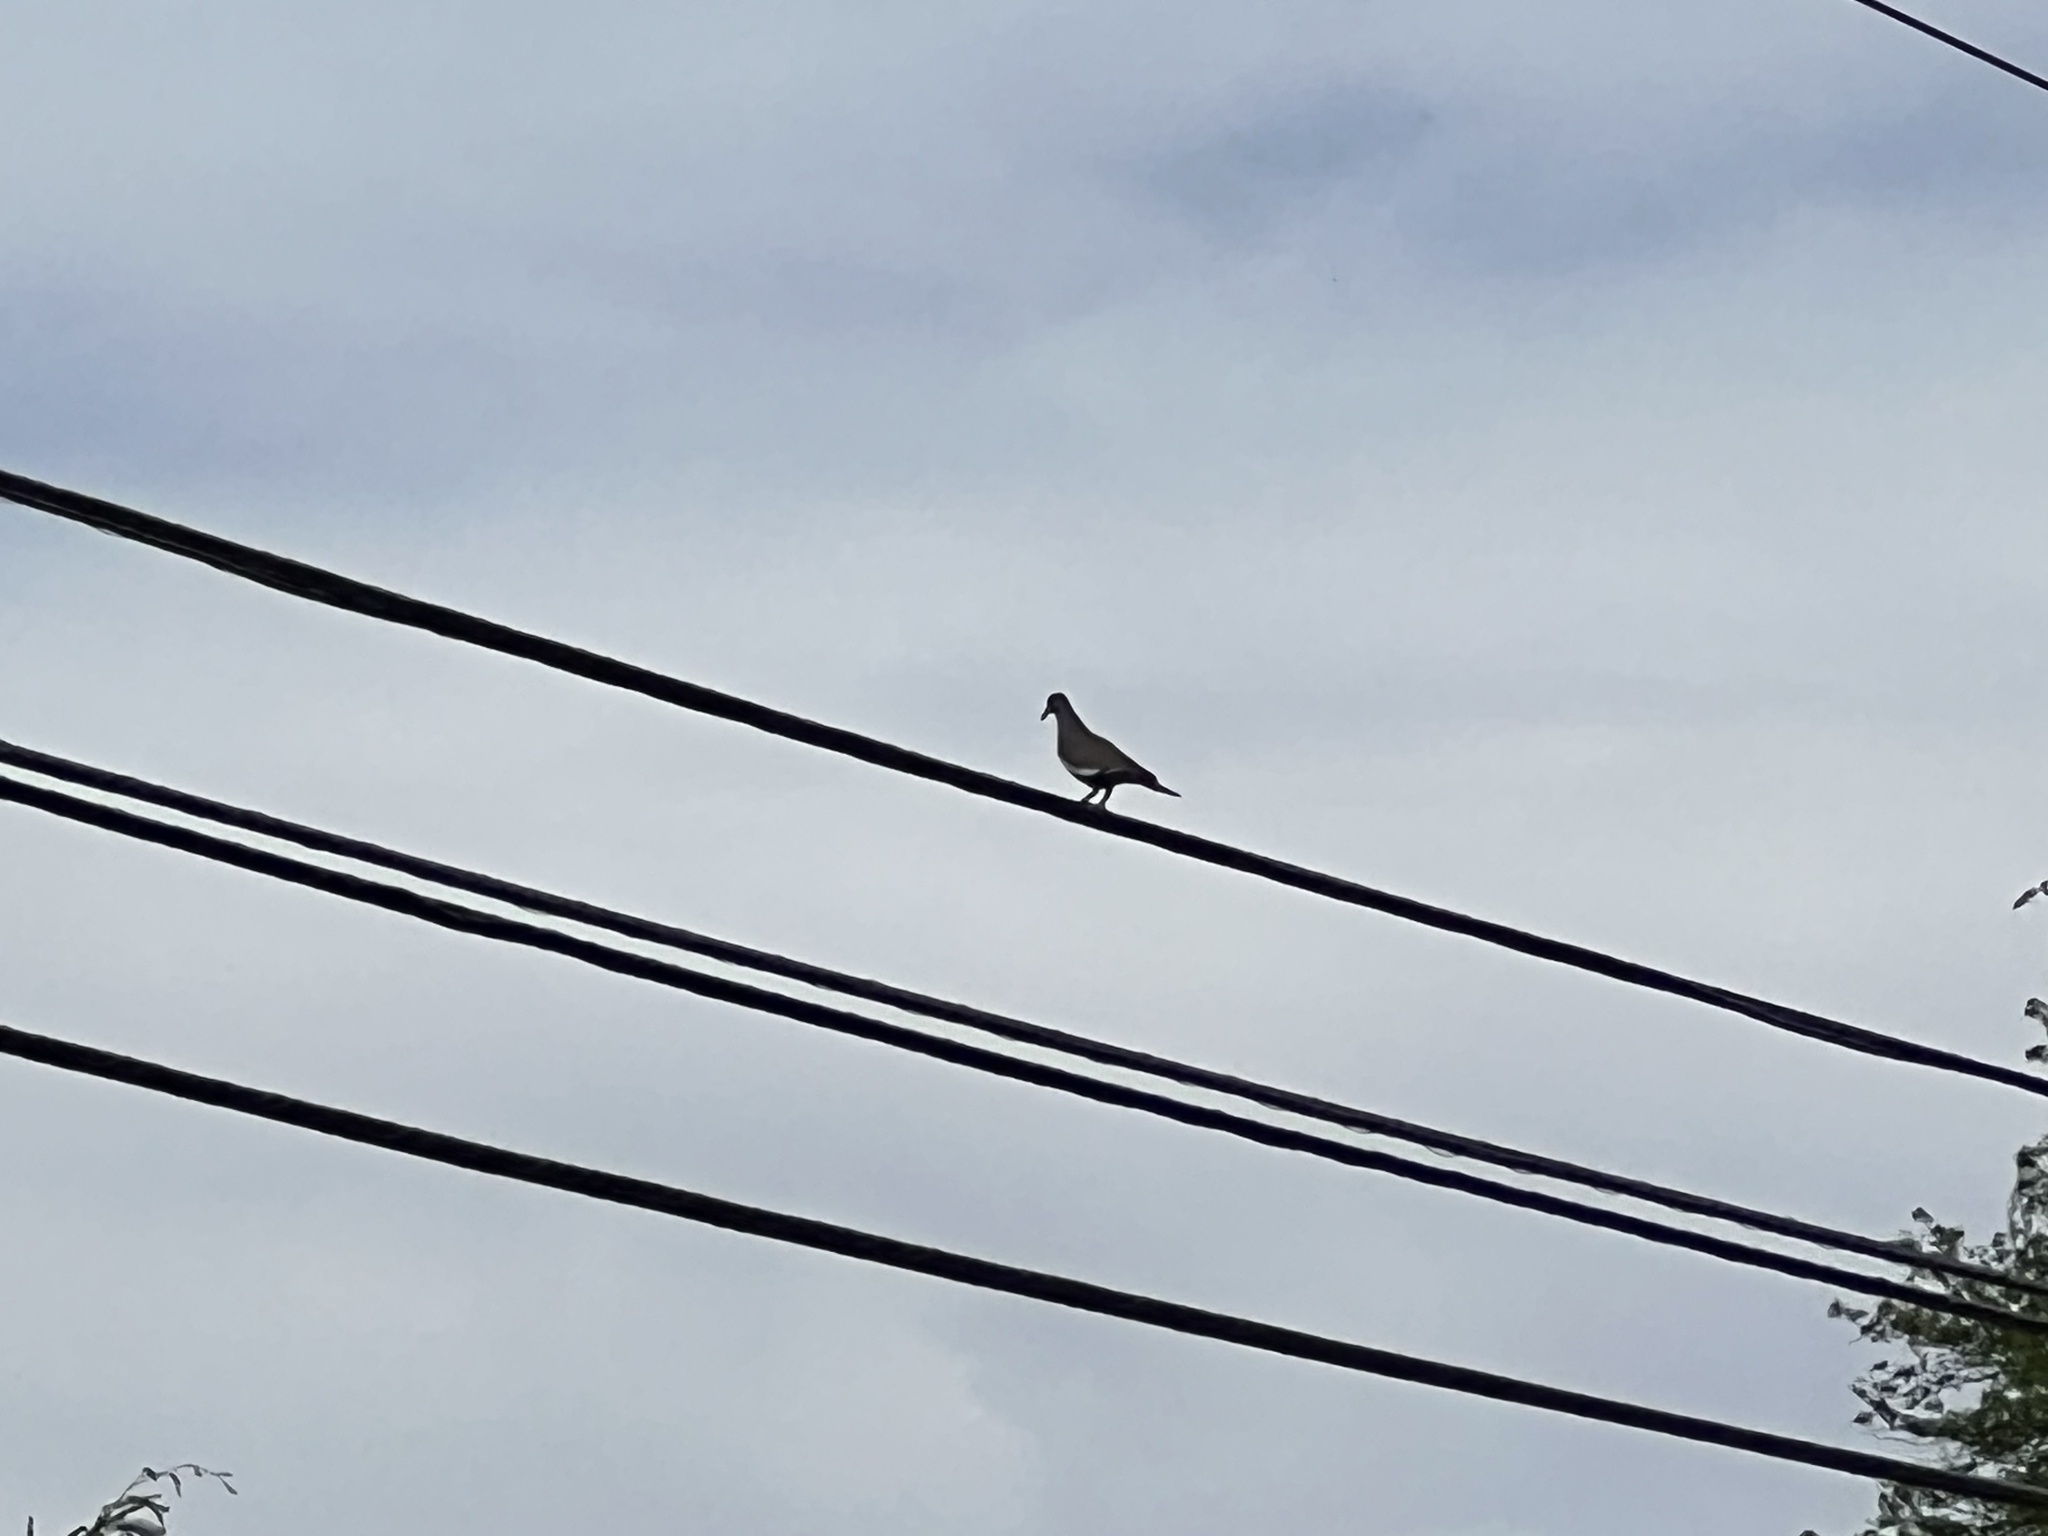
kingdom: Animalia
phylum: Chordata
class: Aves
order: Columbiformes
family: Columbidae
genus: Zenaida
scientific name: Zenaida asiatica
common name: White-winged dove
